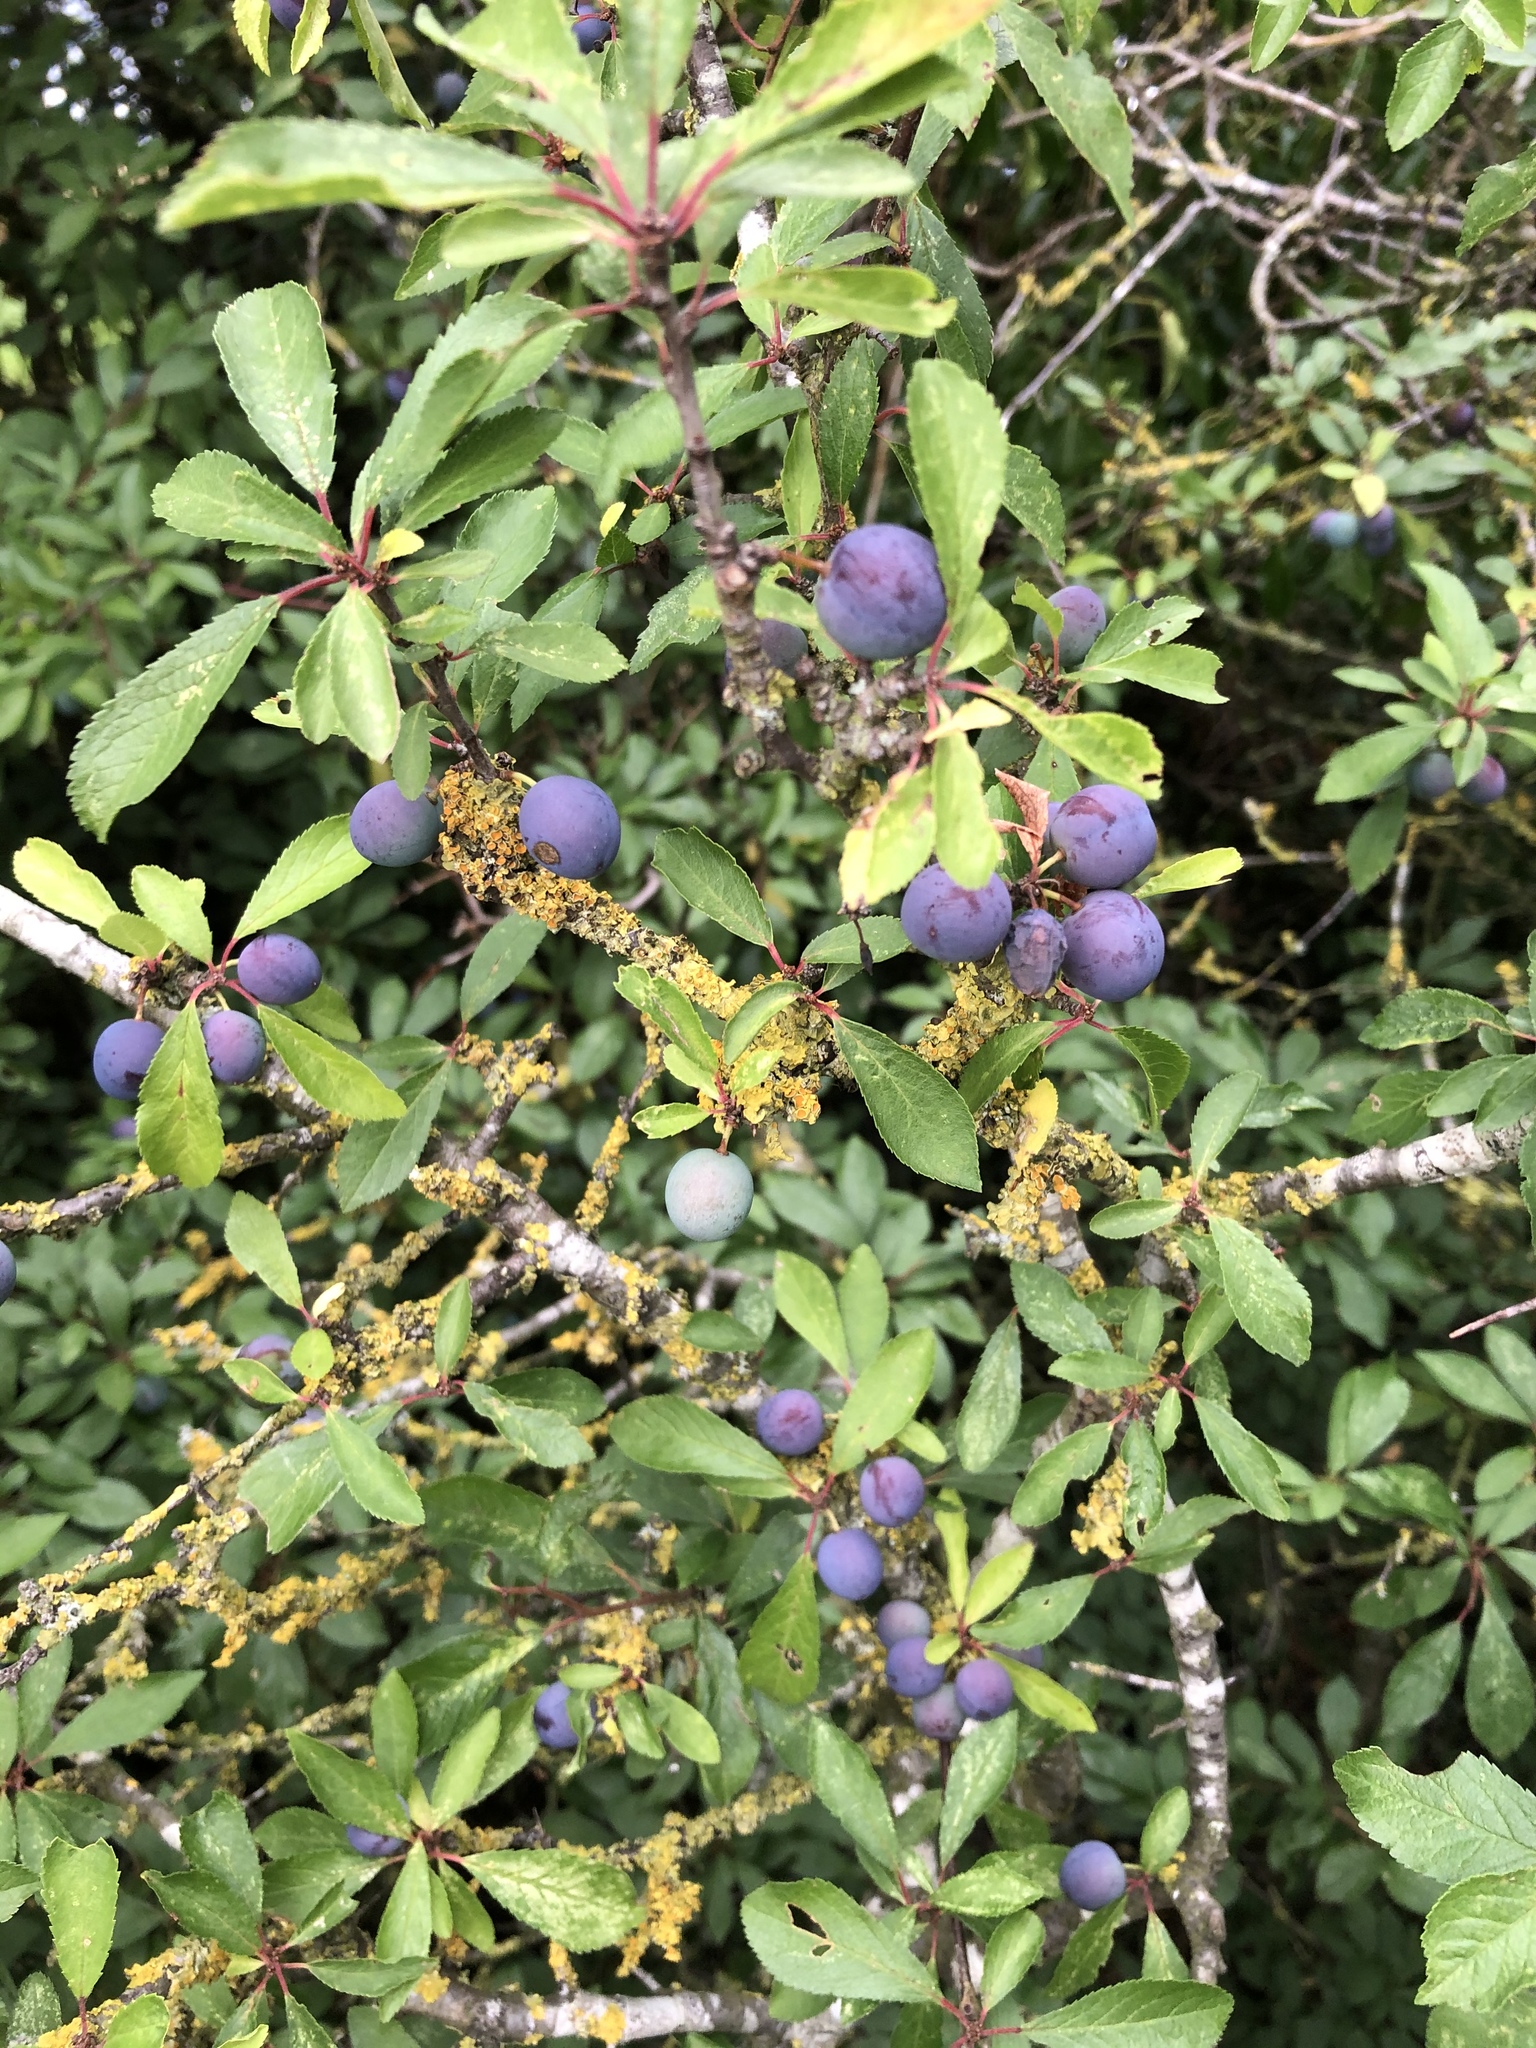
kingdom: Plantae
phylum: Tracheophyta
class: Magnoliopsida
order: Rosales
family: Rosaceae
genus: Prunus
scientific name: Prunus spinosa
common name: Blackthorn
